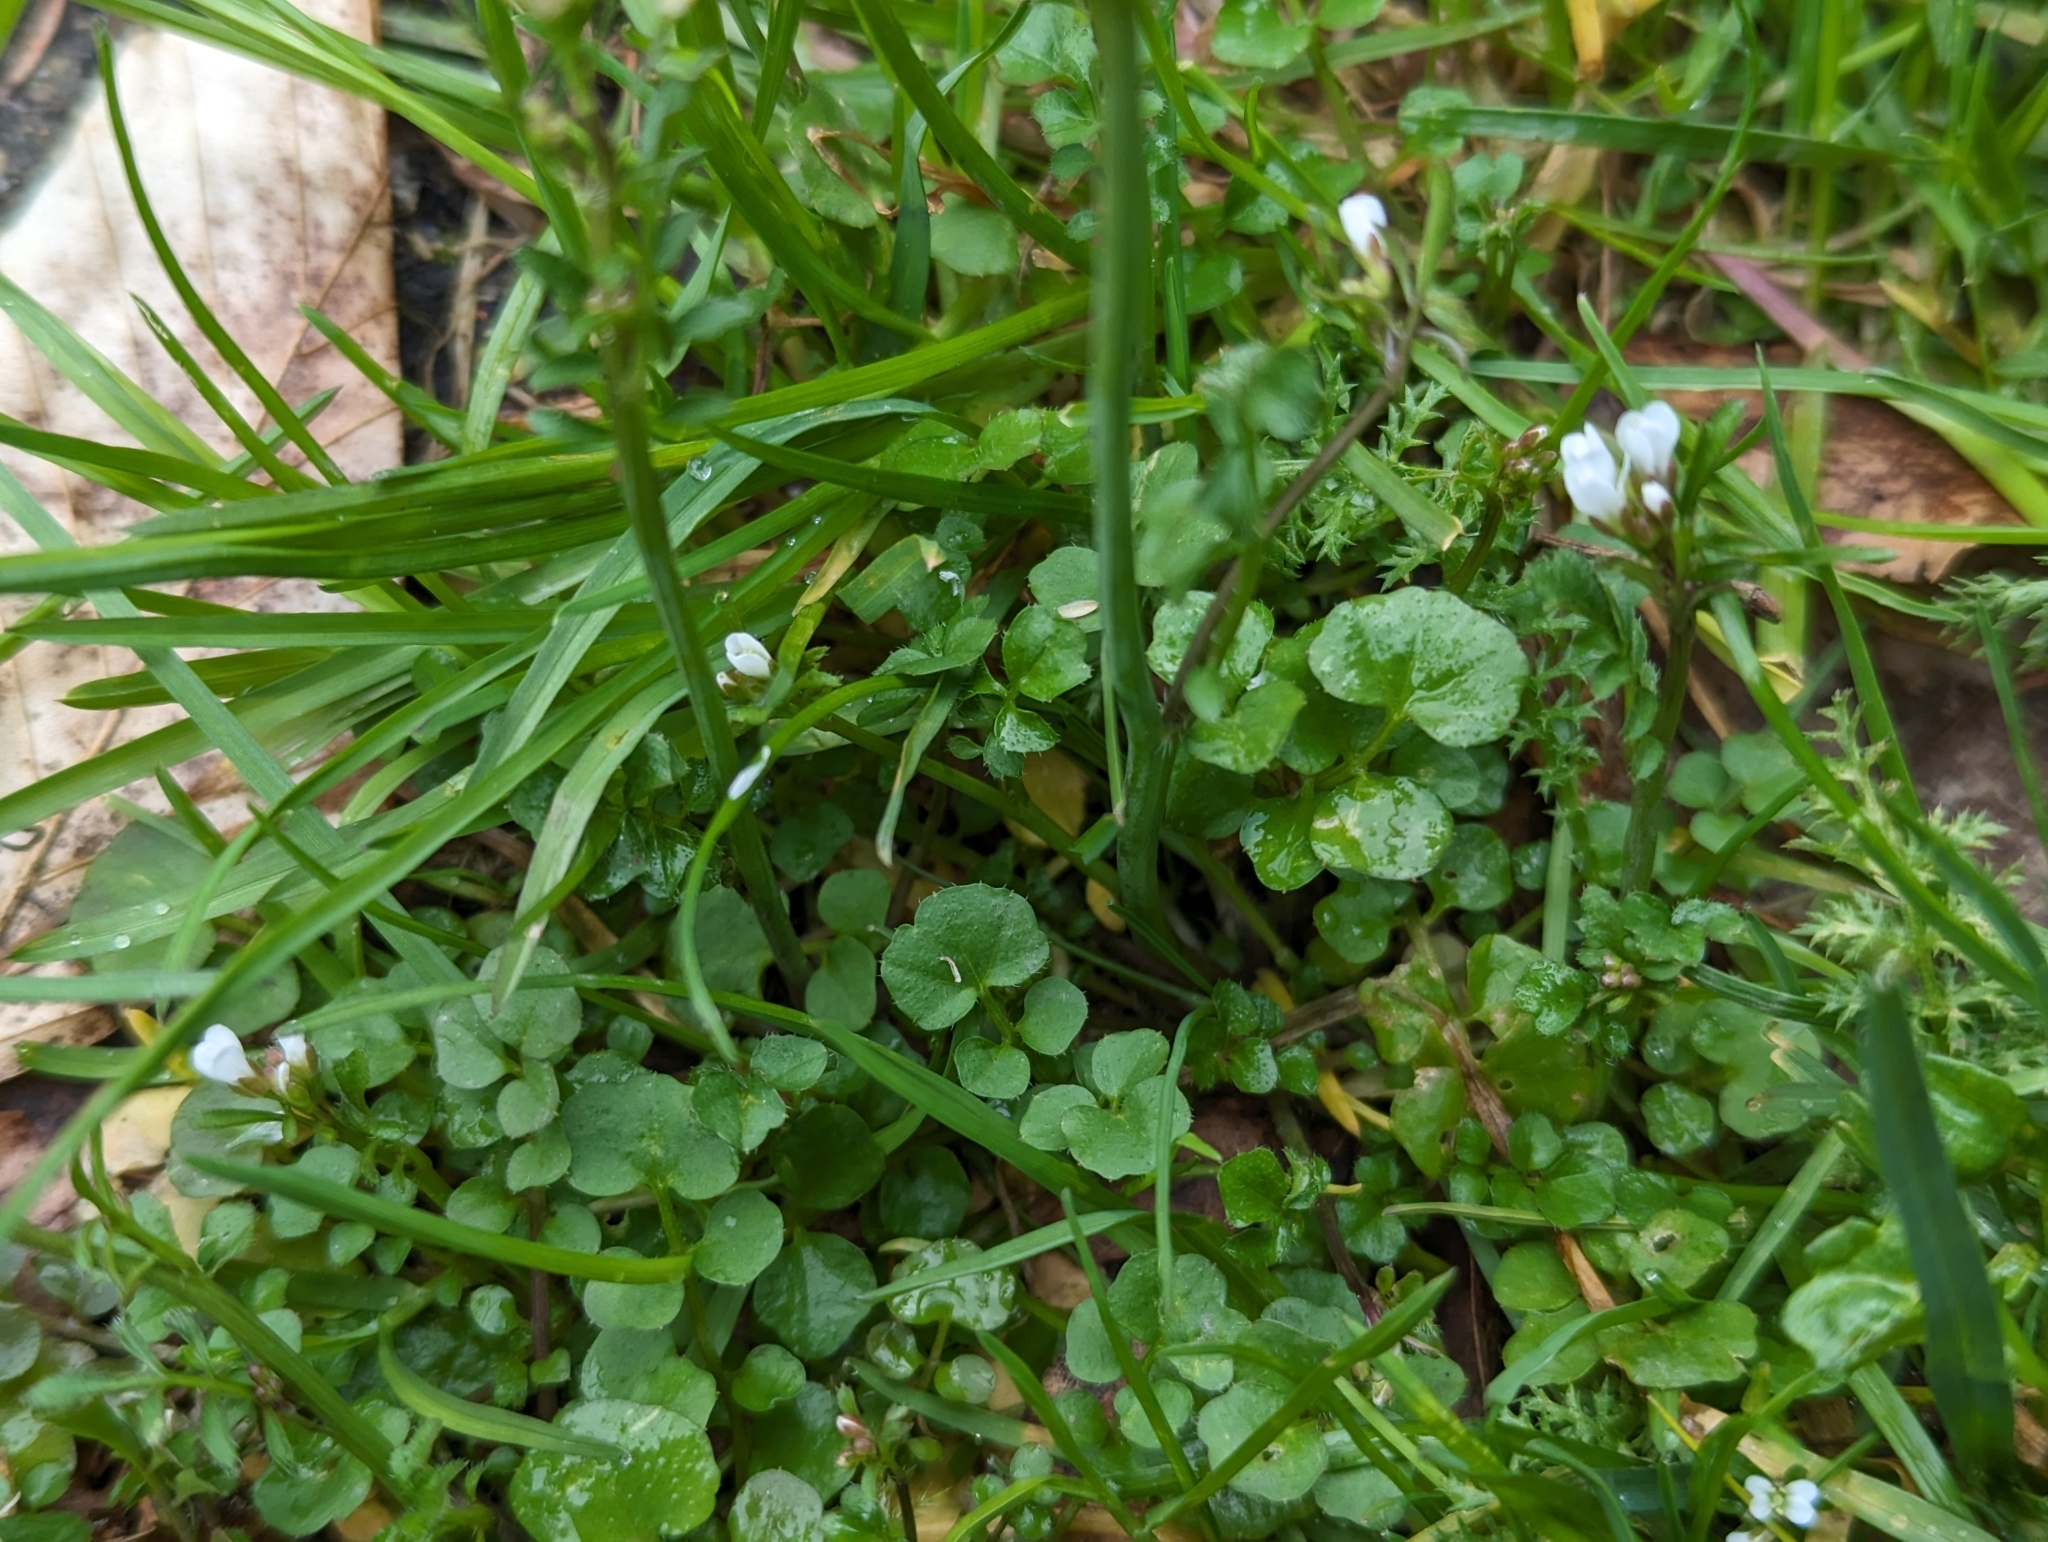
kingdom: Plantae
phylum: Tracheophyta
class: Magnoliopsida
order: Brassicales
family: Brassicaceae
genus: Cardamine
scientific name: Cardamine hirsuta
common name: Hairy bittercress
